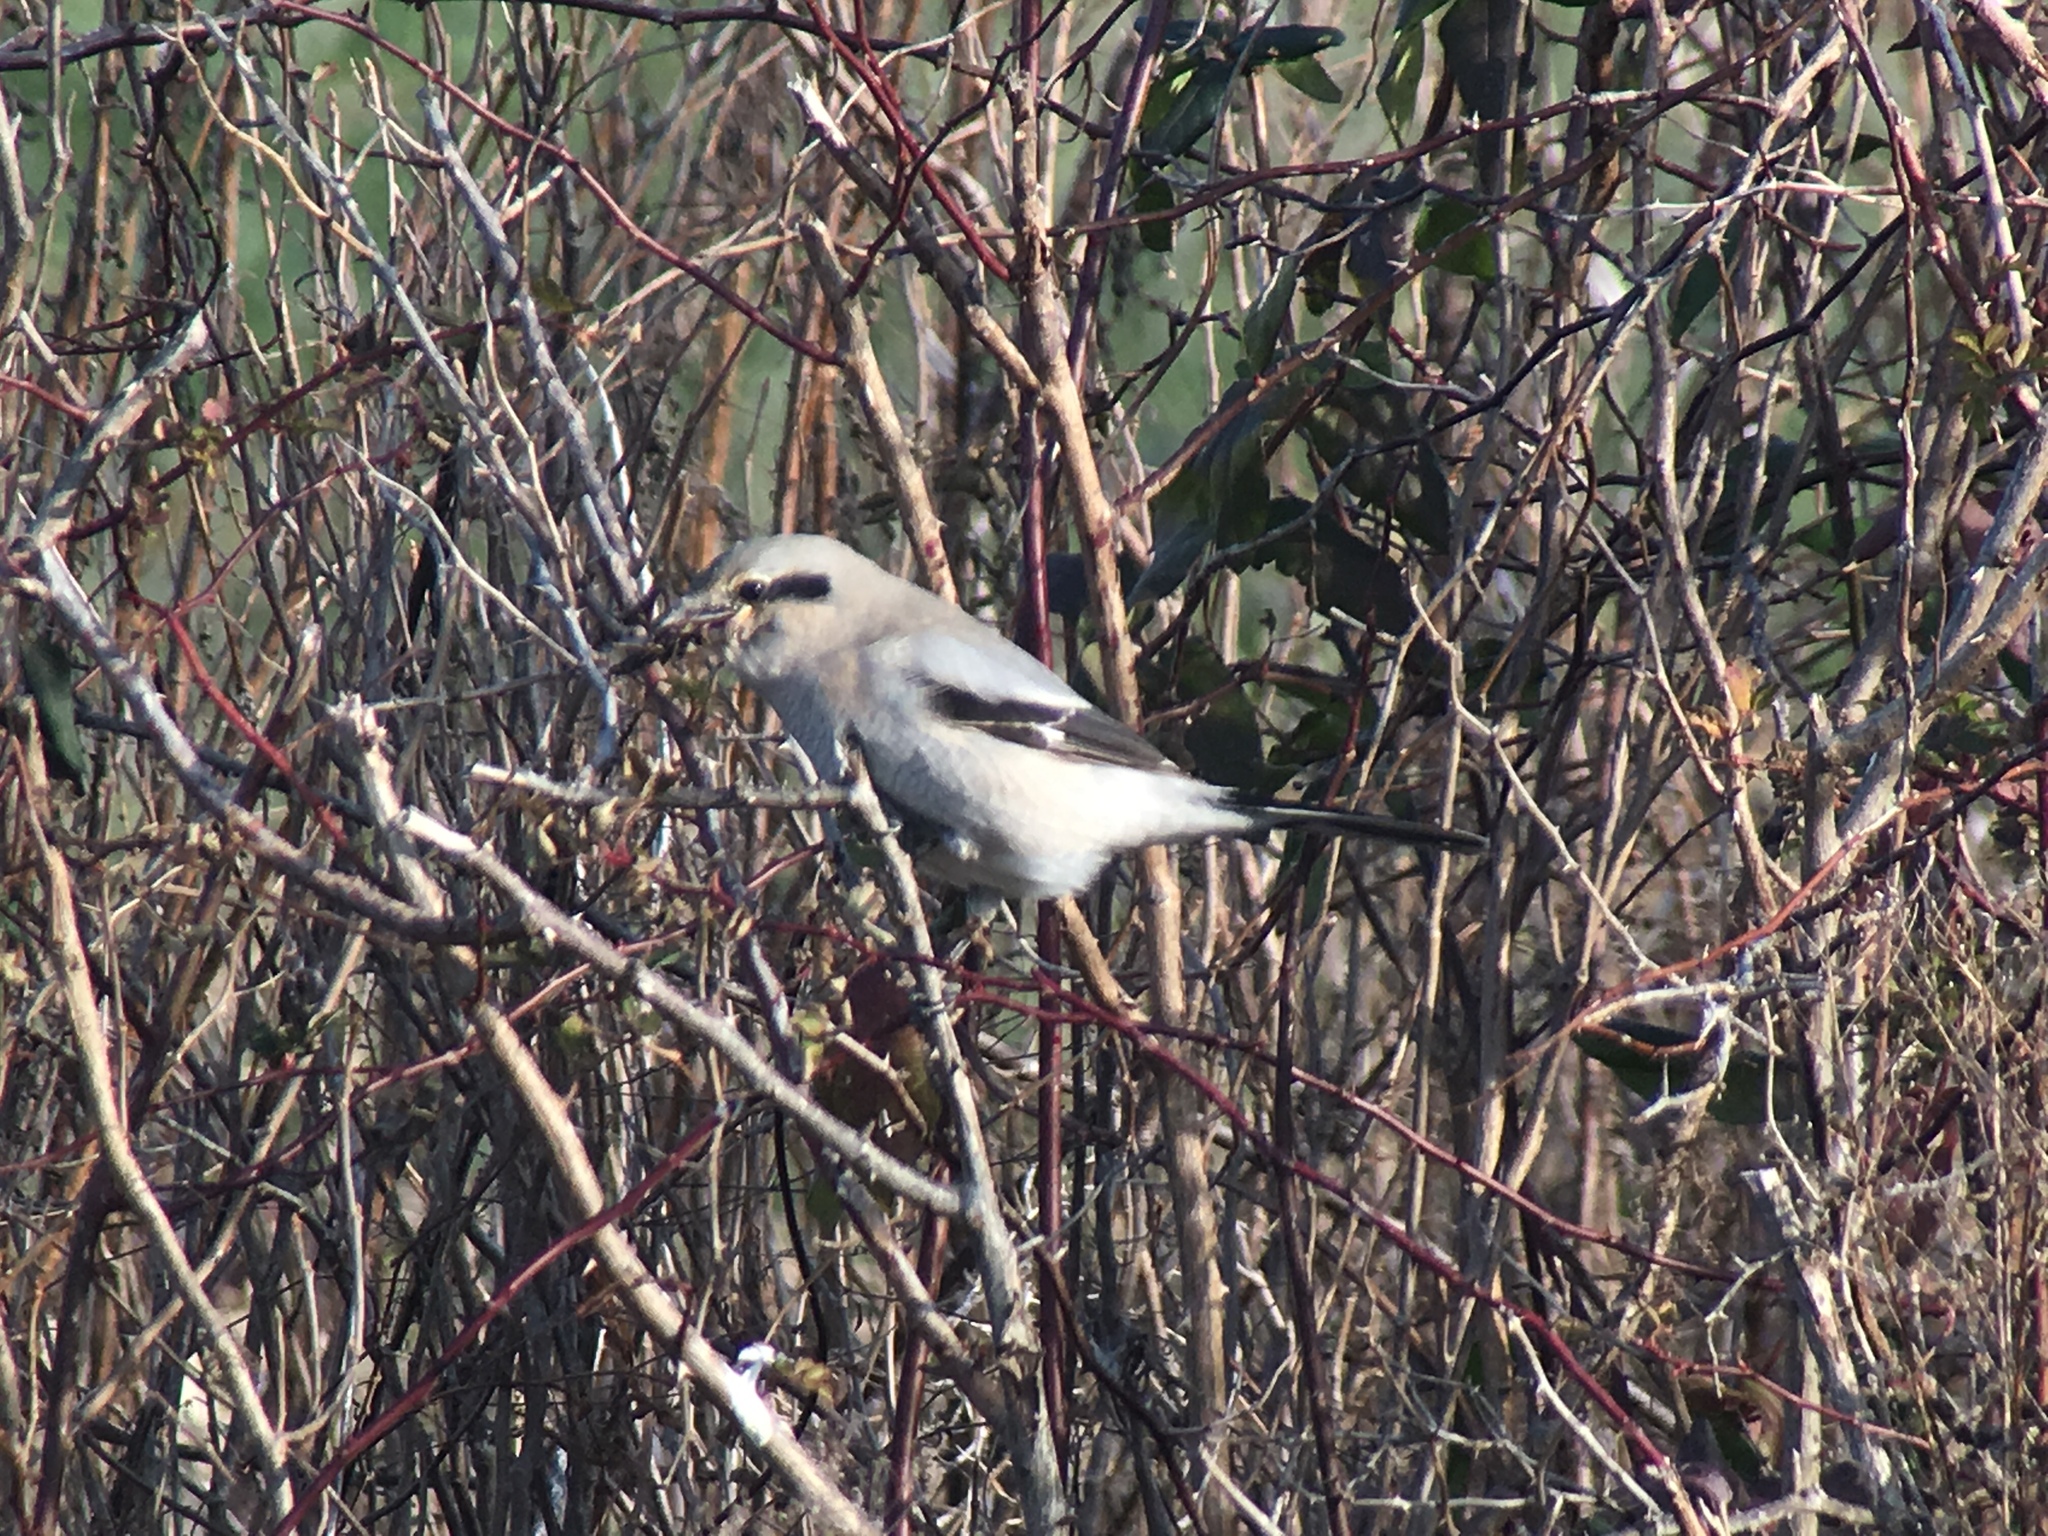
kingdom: Animalia
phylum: Chordata
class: Aves
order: Passeriformes
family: Laniidae
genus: Lanius
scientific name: Lanius borealis
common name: Northern shrike
